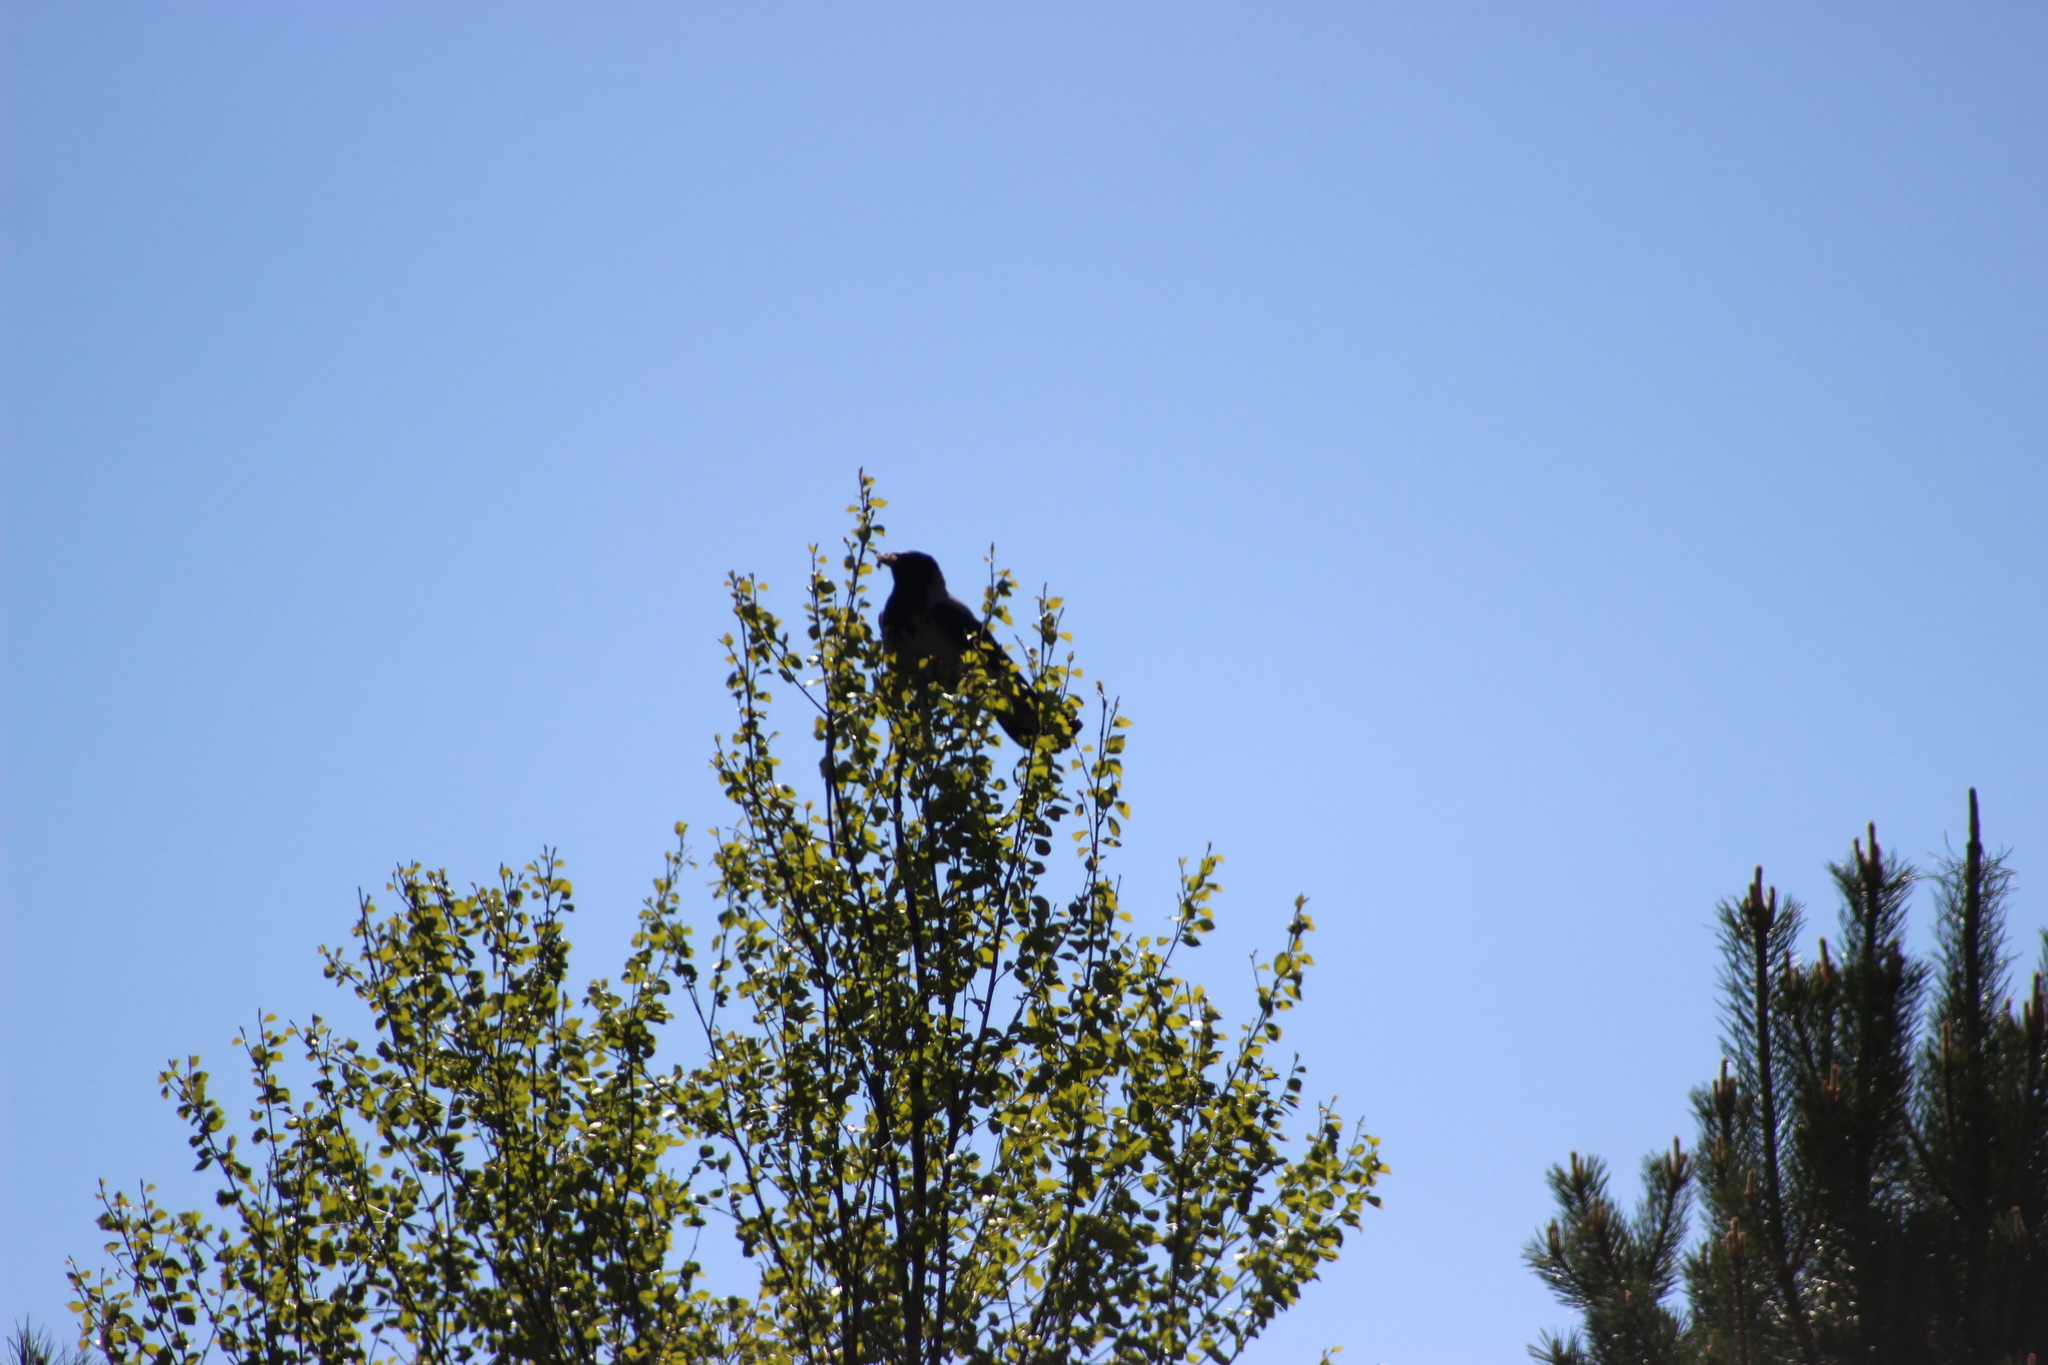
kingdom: Animalia
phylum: Chordata
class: Aves
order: Passeriformes
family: Corvidae
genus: Corvus
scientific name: Corvus cornix
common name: Hooded crow
